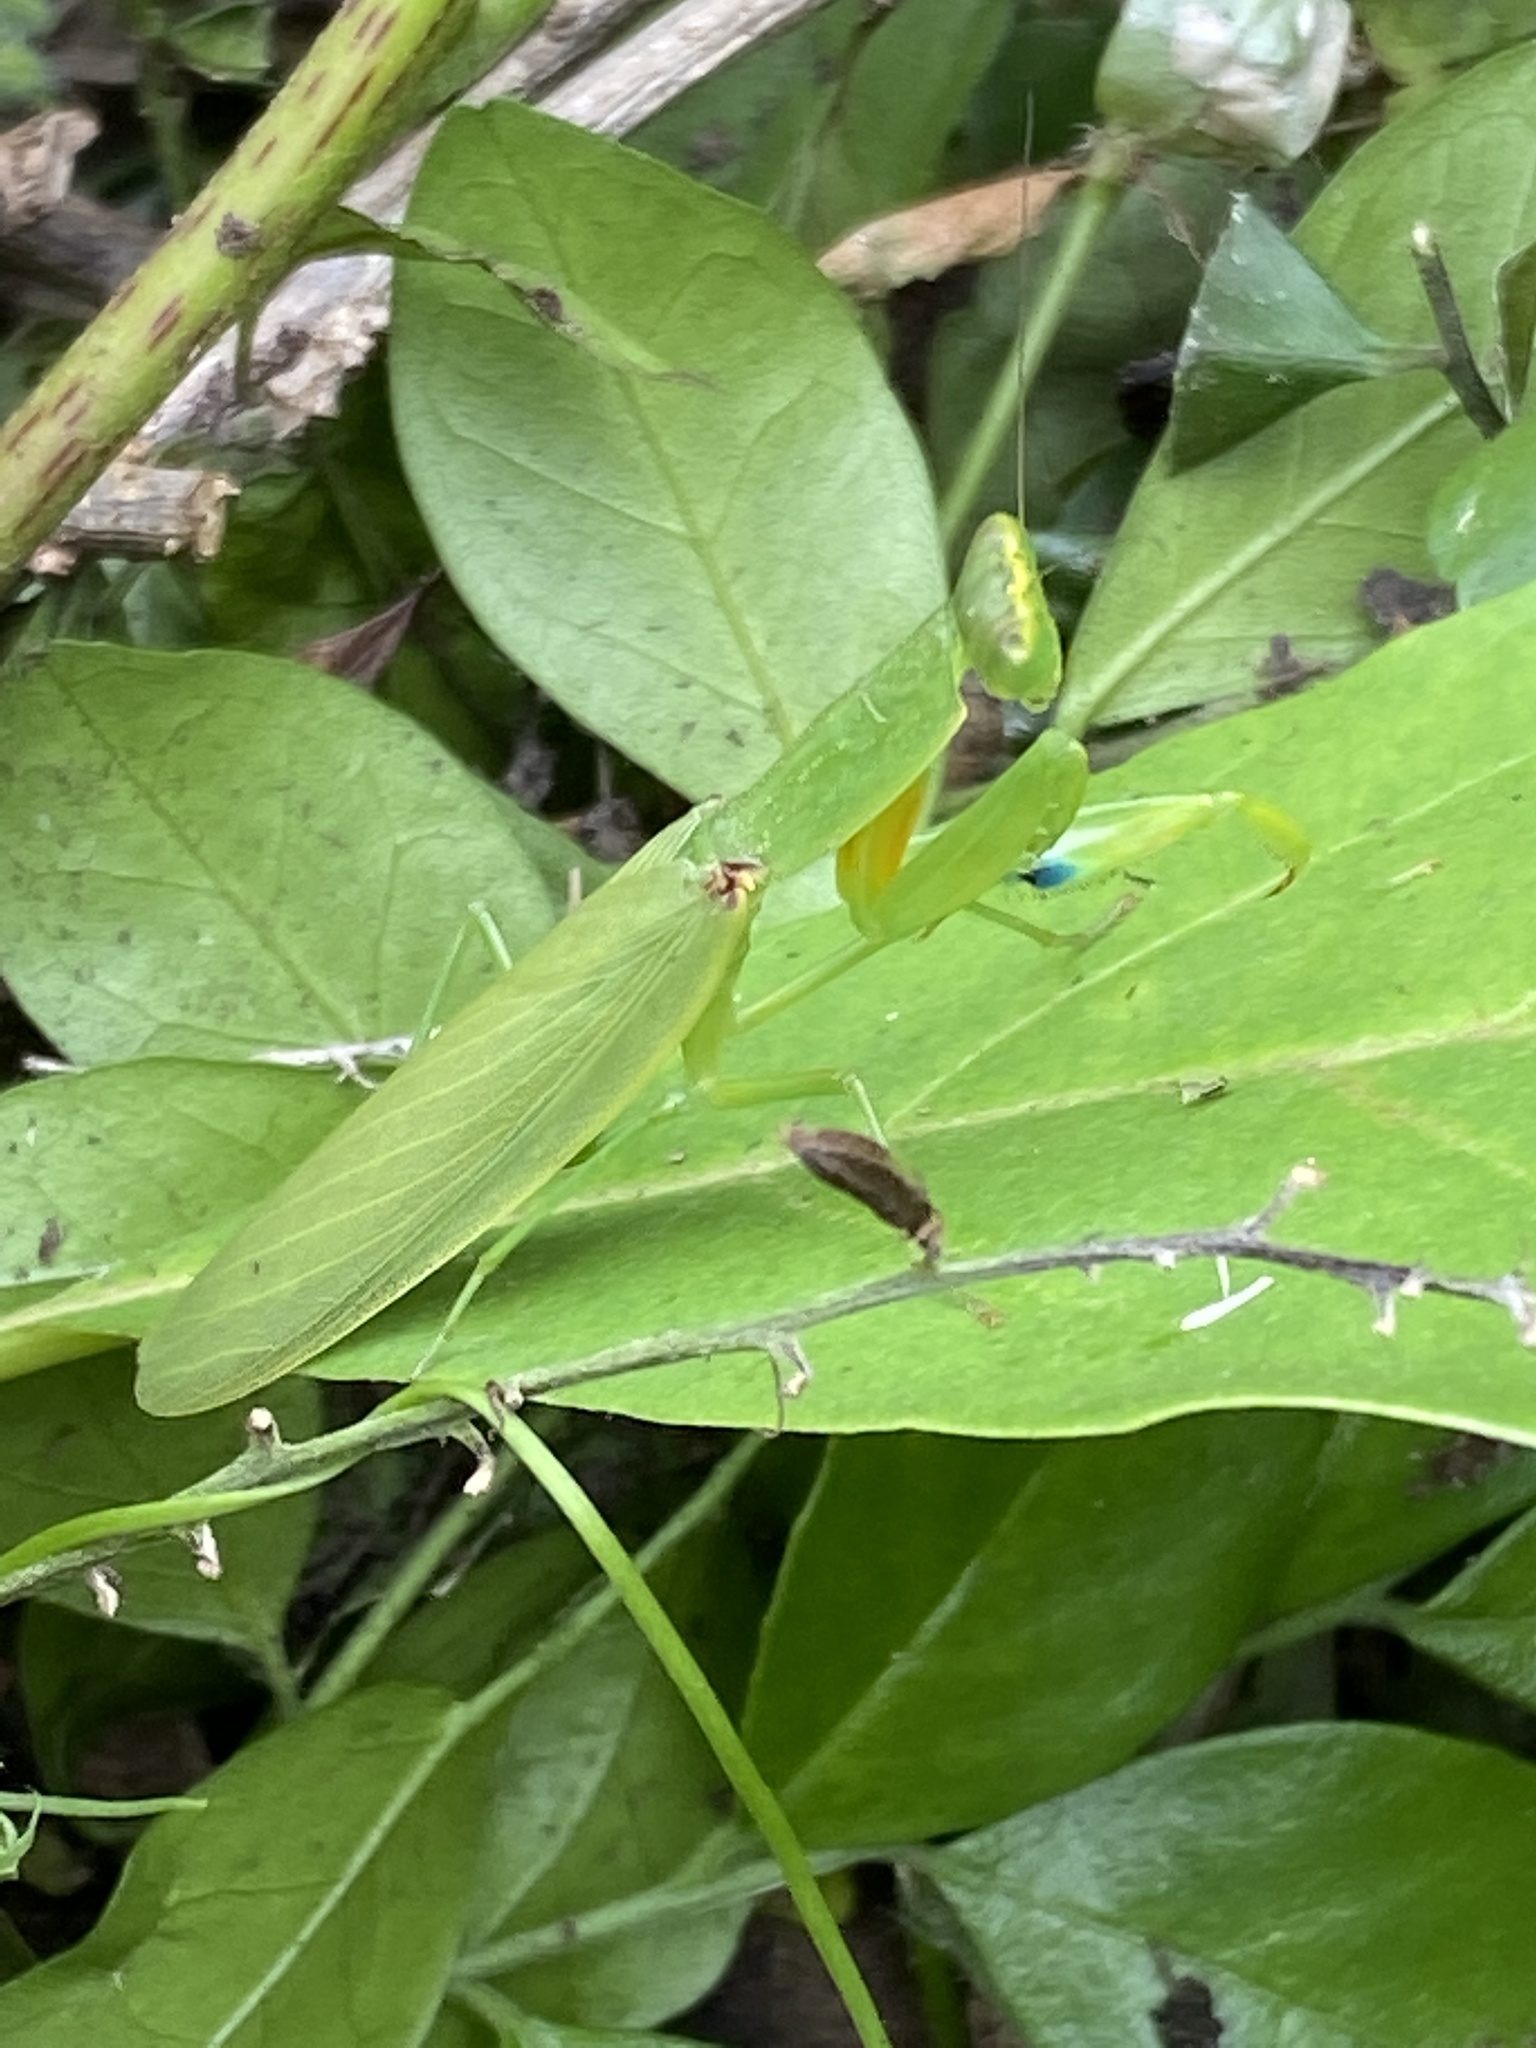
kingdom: Animalia
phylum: Arthropoda
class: Insecta
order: Mantodea
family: Mantidae
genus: Orthodera
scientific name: Orthodera ministralis
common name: Mantis
